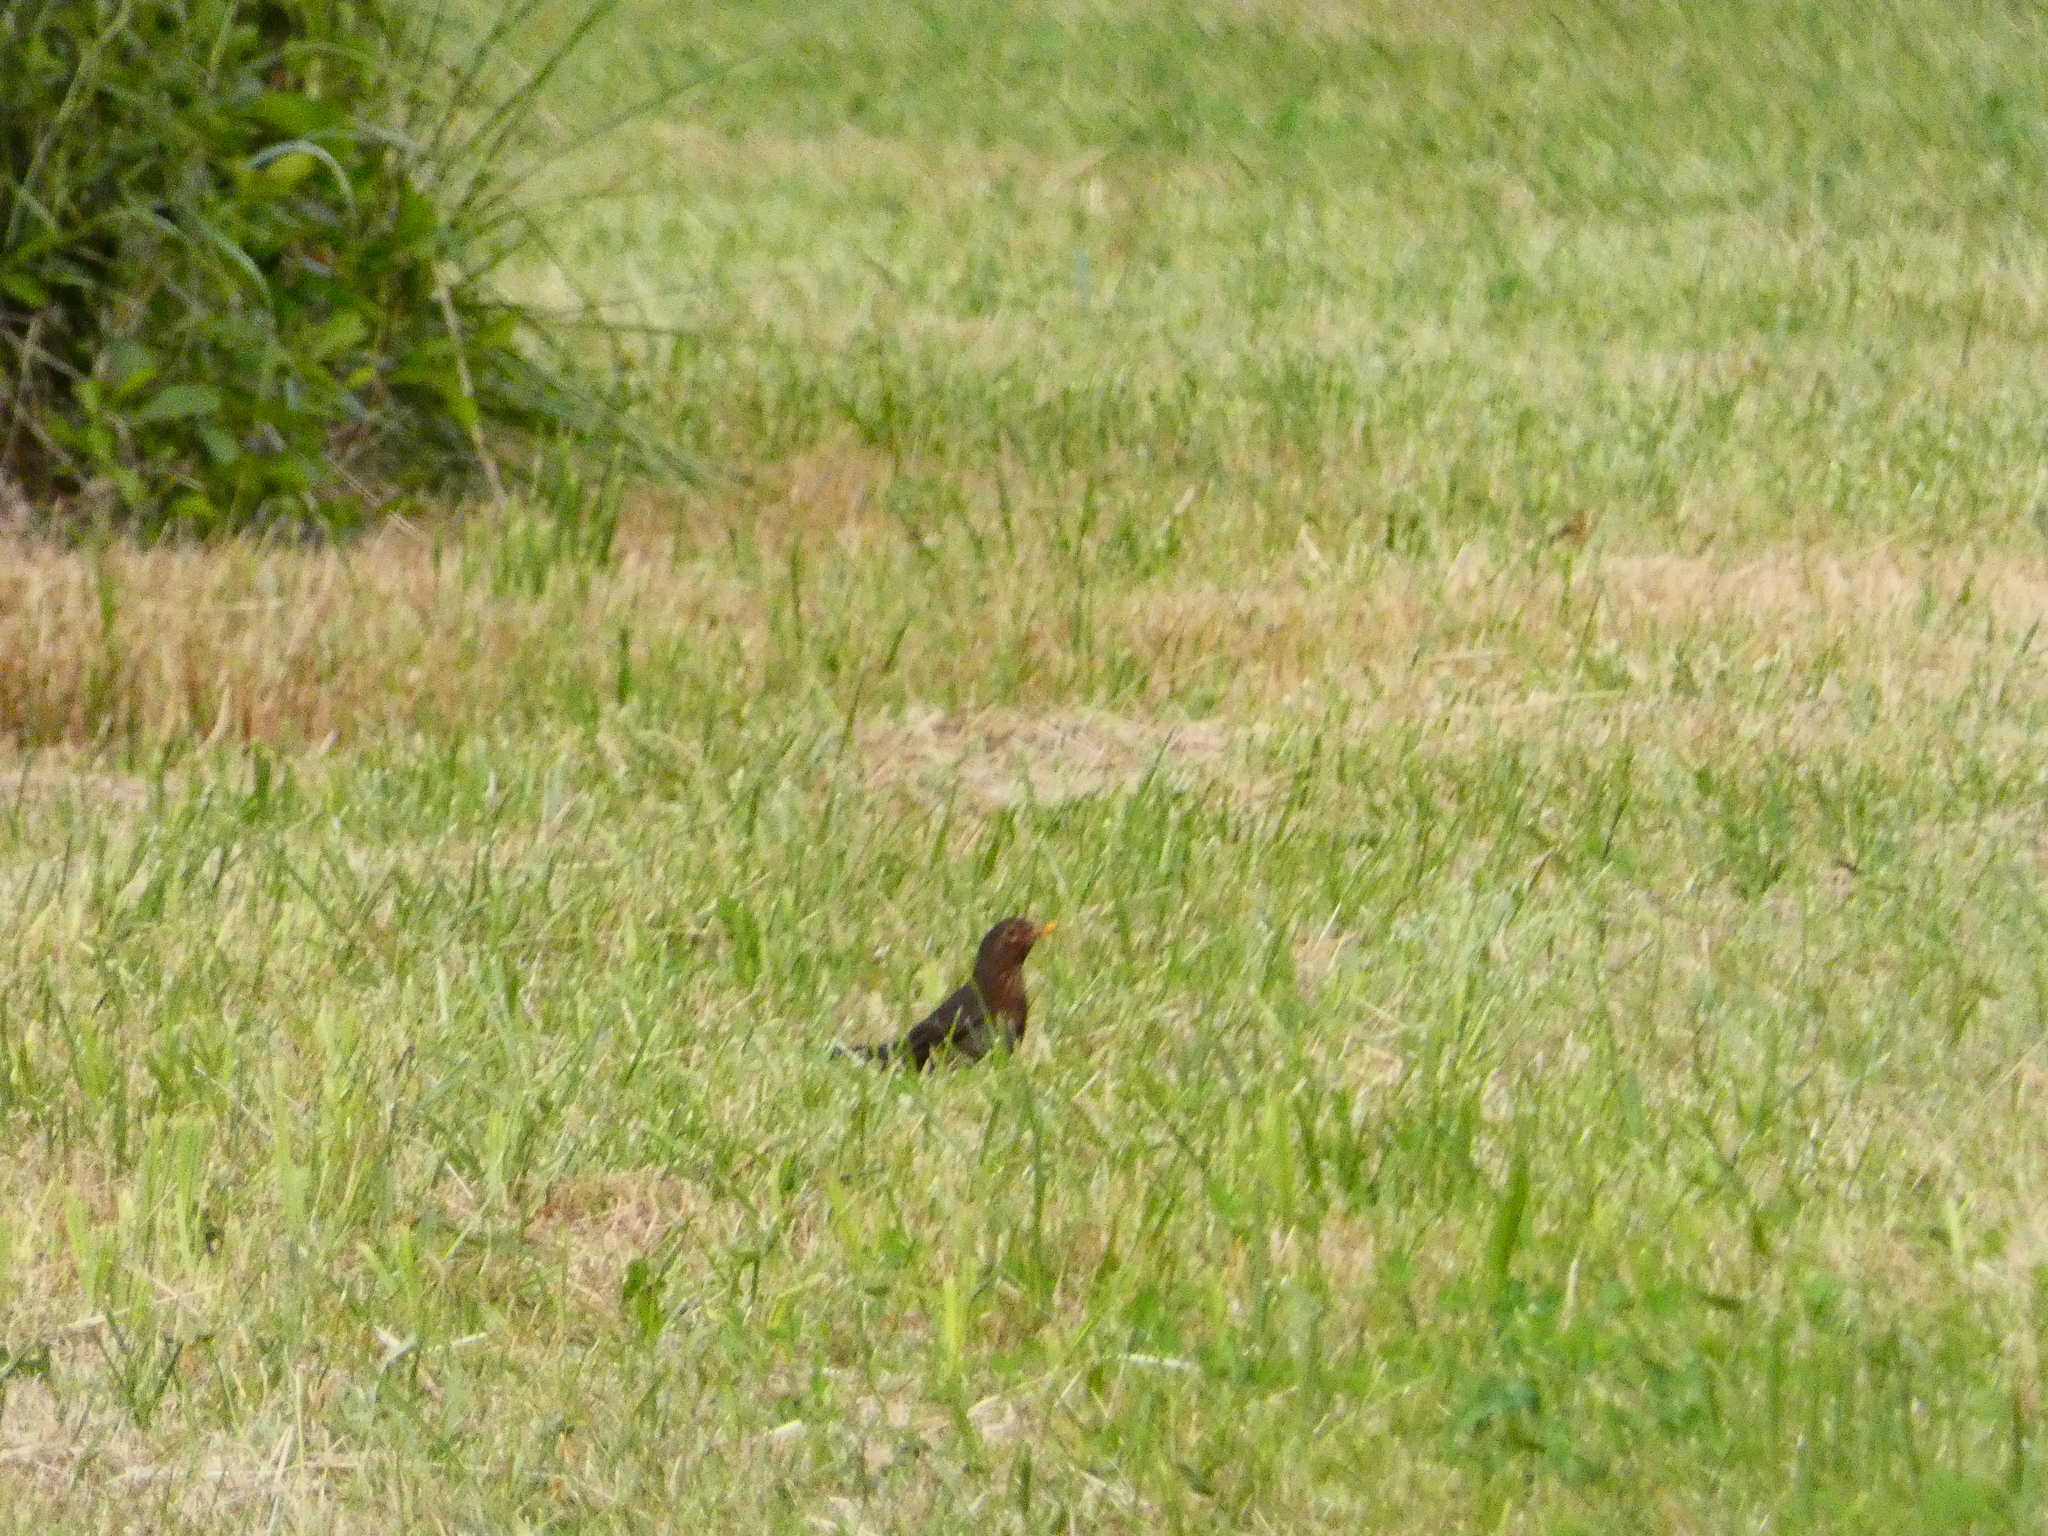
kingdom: Animalia
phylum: Chordata
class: Aves
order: Passeriformes
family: Turdidae
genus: Turdus
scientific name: Turdus merula
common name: Common blackbird
